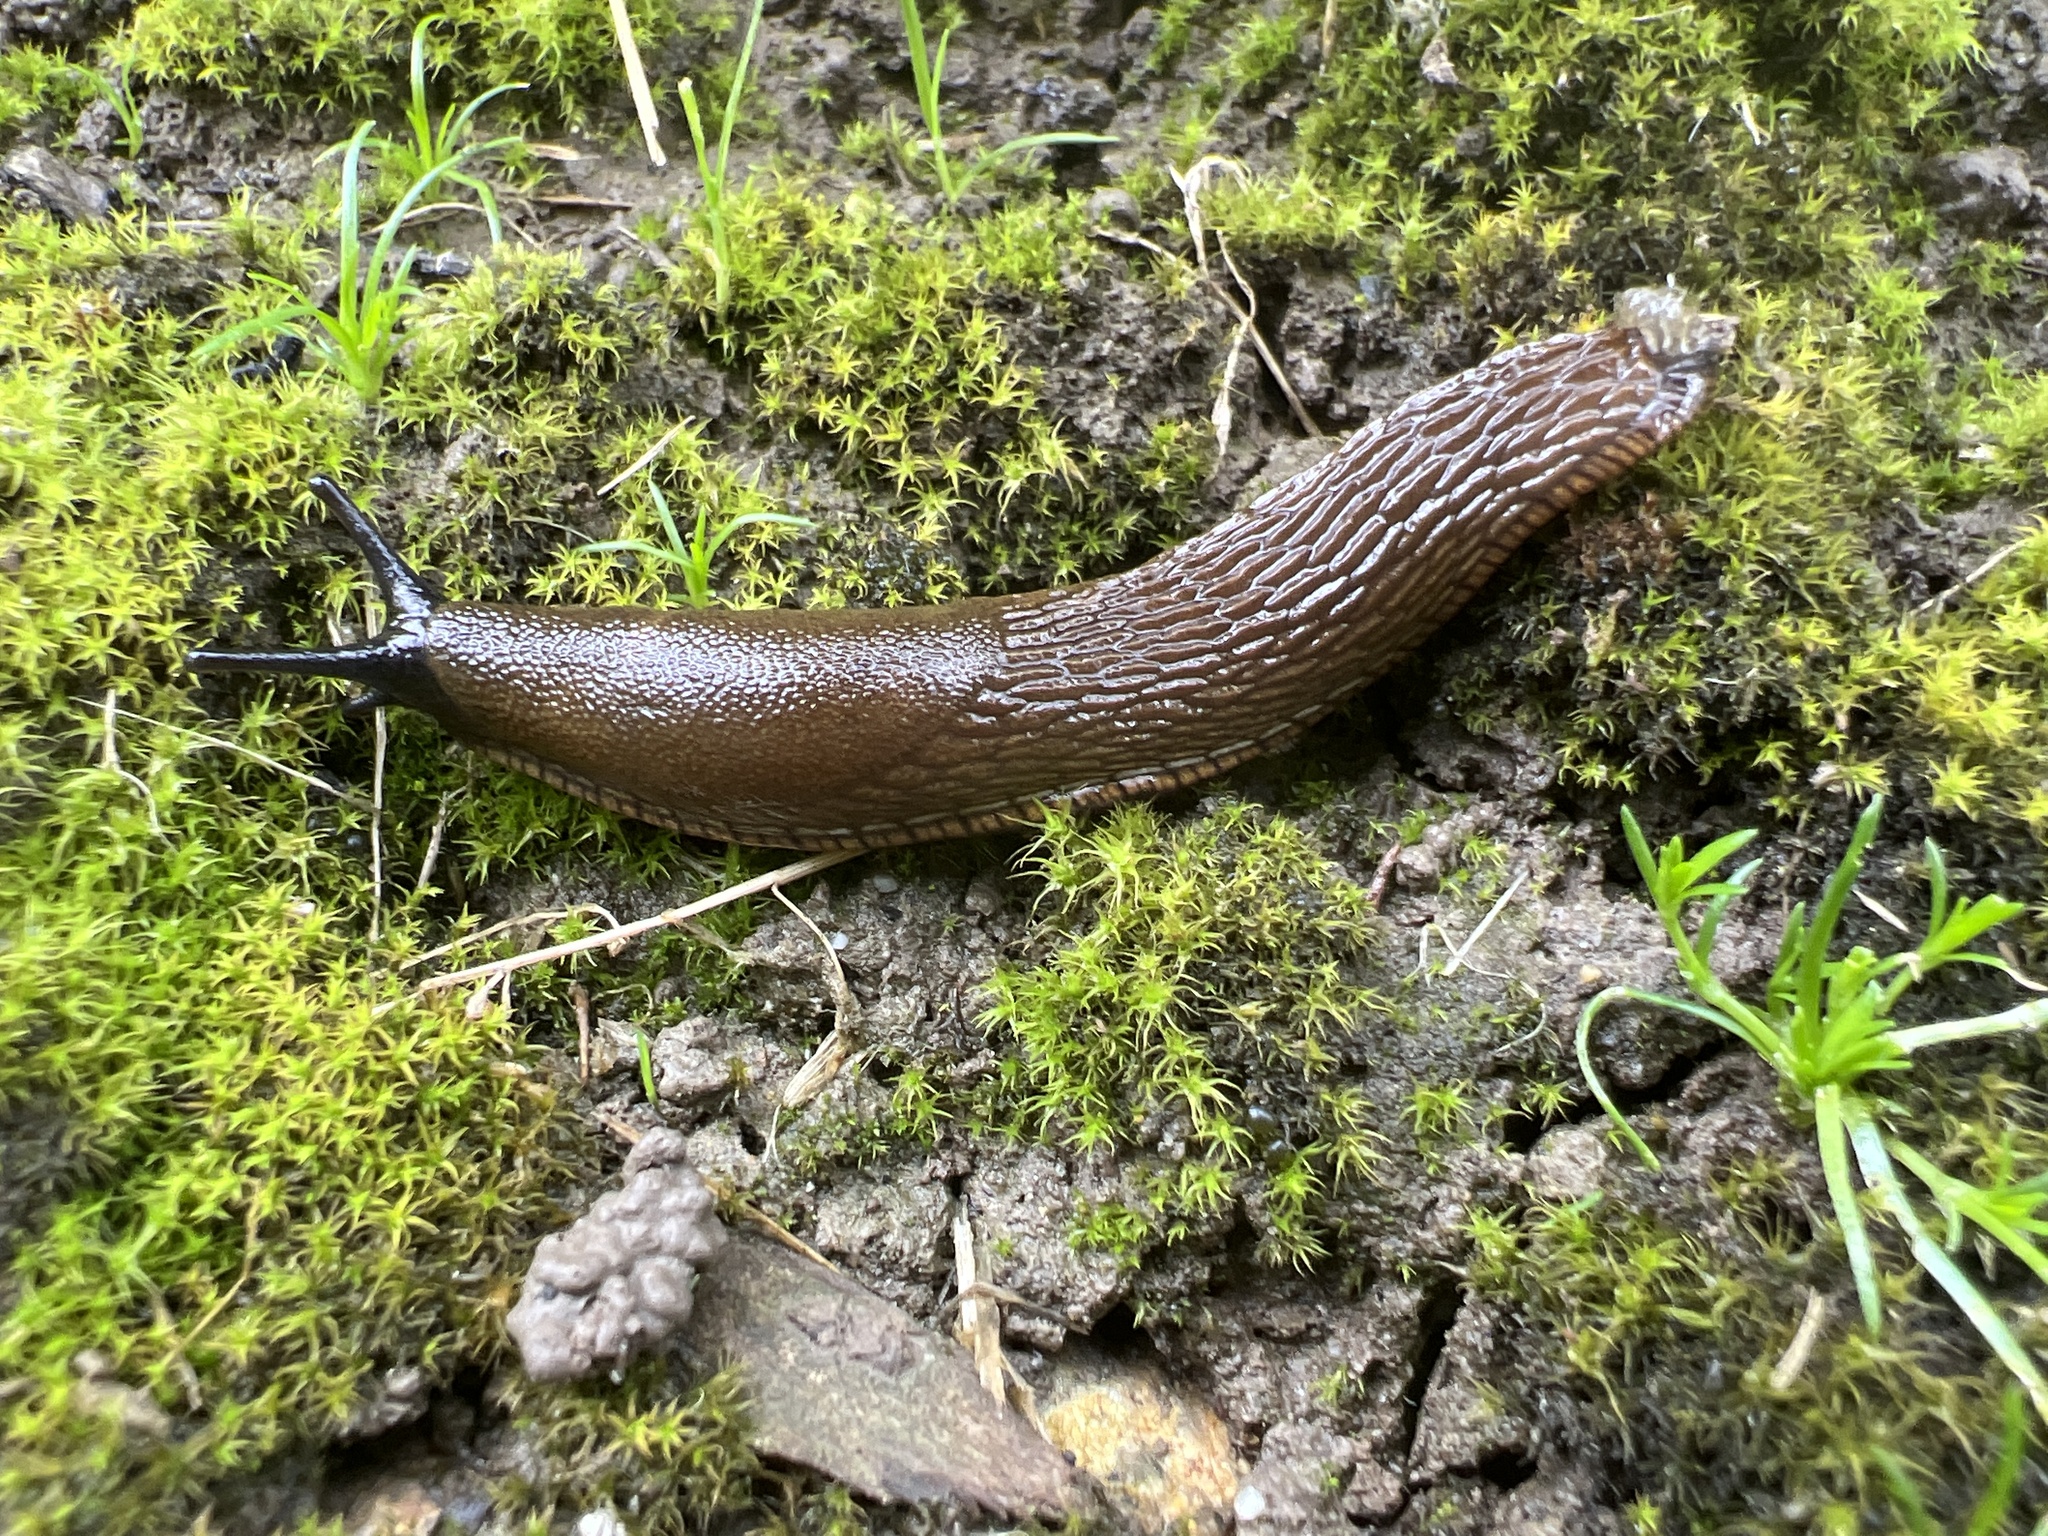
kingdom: Animalia
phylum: Mollusca
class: Gastropoda
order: Stylommatophora
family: Arionidae
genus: Arion
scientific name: Arion
